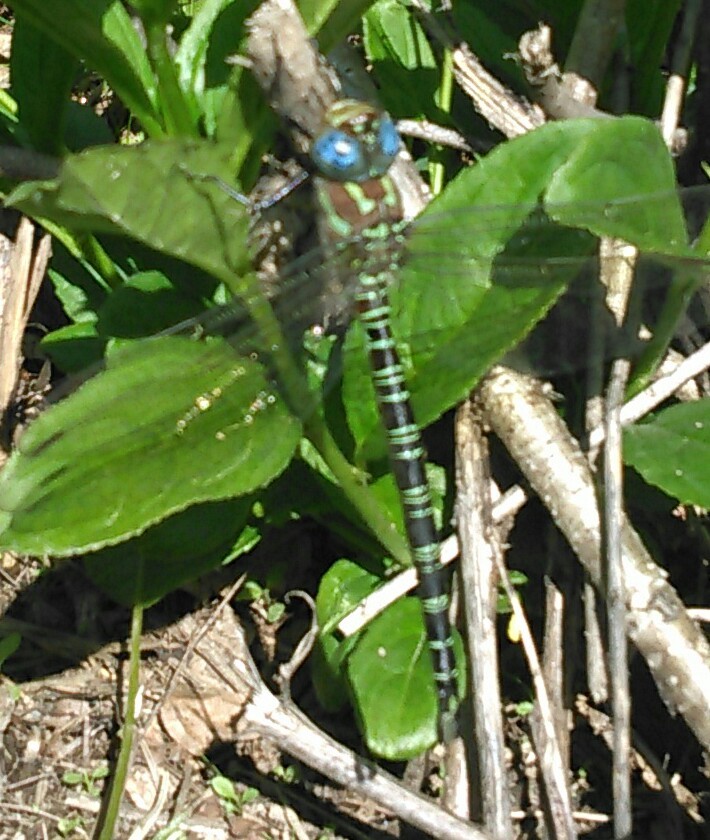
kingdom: Animalia
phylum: Arthropoda
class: Insecta
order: Odonata
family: Aeshnidae
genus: Epiaeschna
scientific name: Epiaeschna heros
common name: Swamp darner
